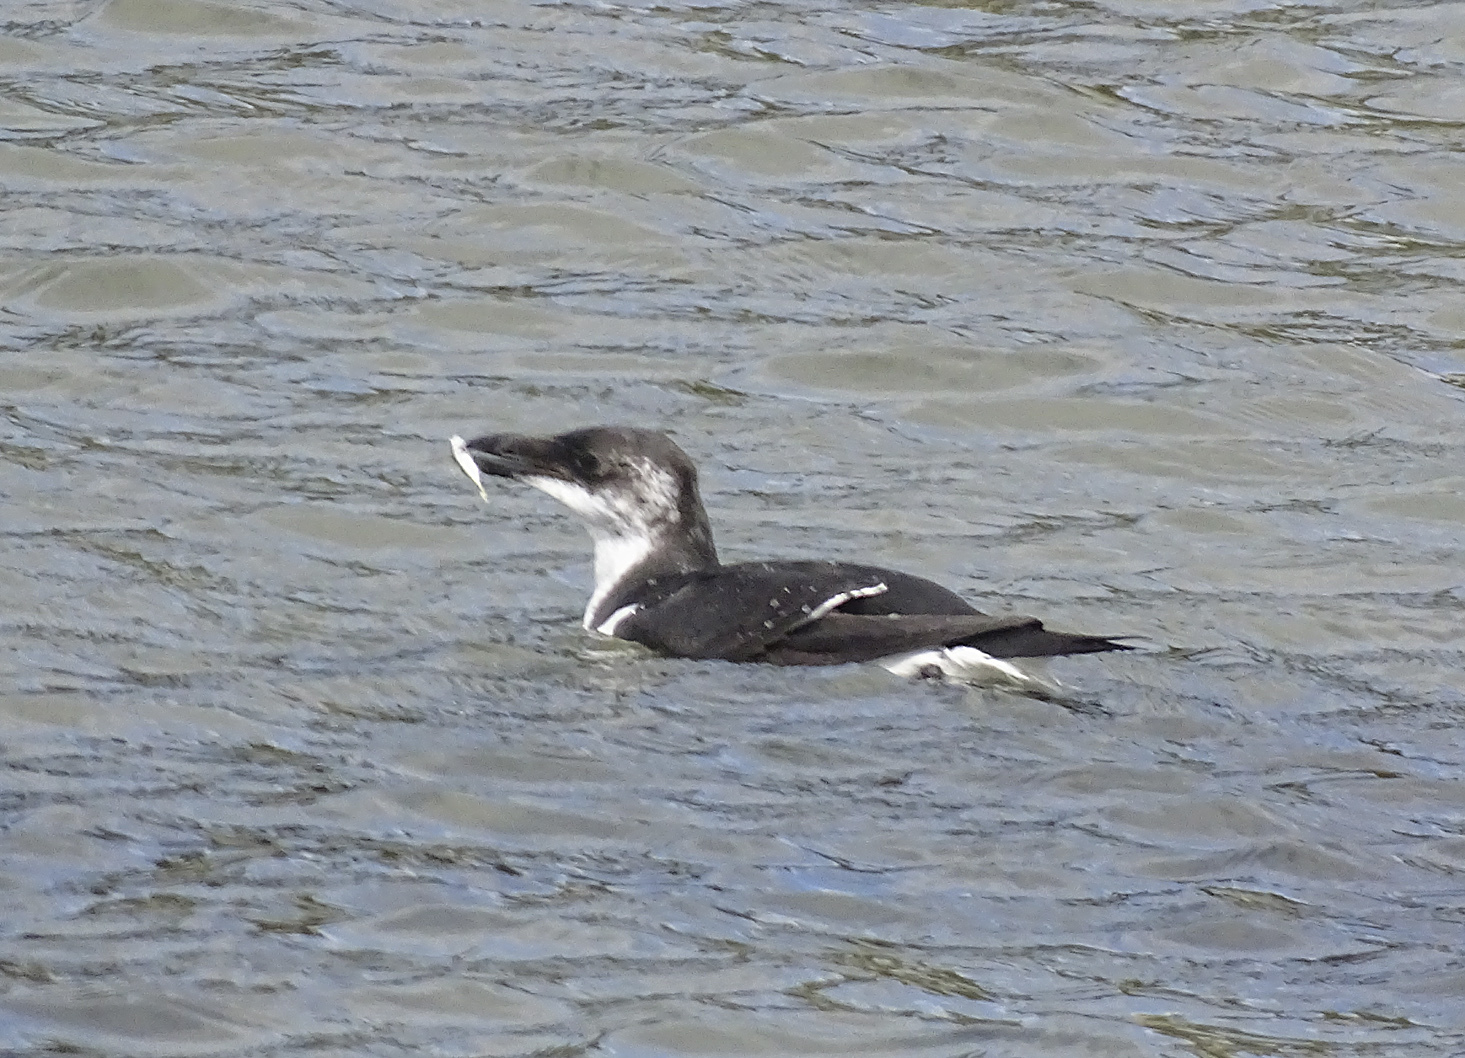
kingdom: Animalia
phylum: Chordata
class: Aves
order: Charadriiformes
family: Alcidae
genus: Alca
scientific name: Alca torda
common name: Razorbill
